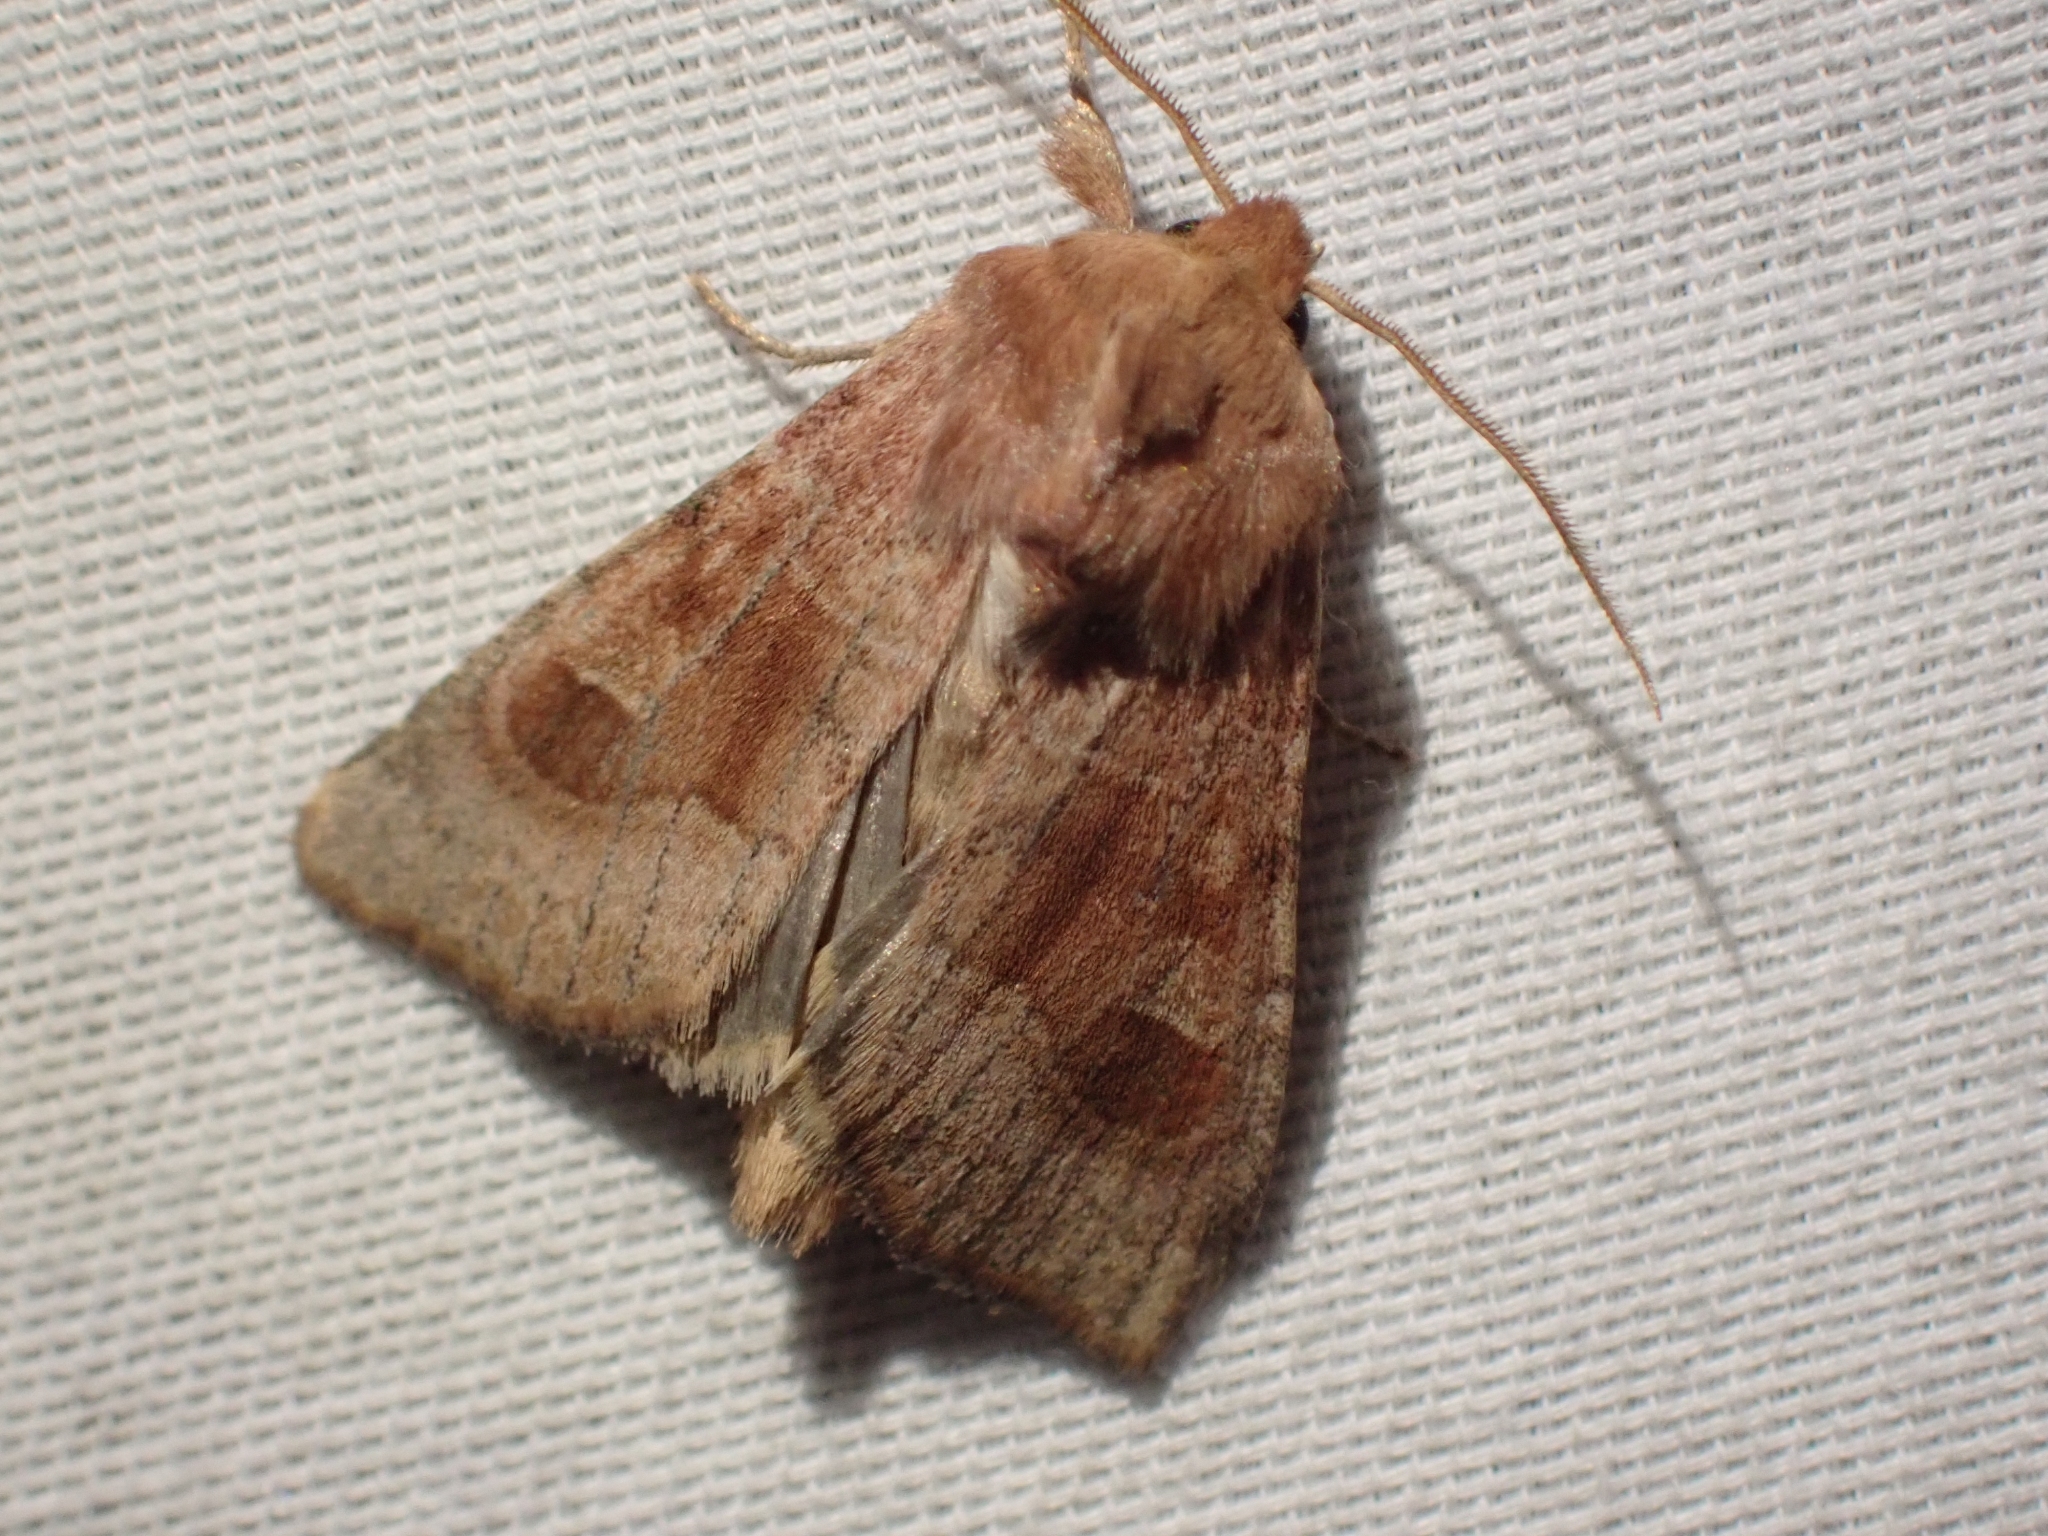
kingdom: Animalia
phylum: Arthropoda
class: Insecta
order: Lepidoptera
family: Noctuidae
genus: Nephelodes
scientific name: Nephelodes minians
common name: Bronzed cutworm
